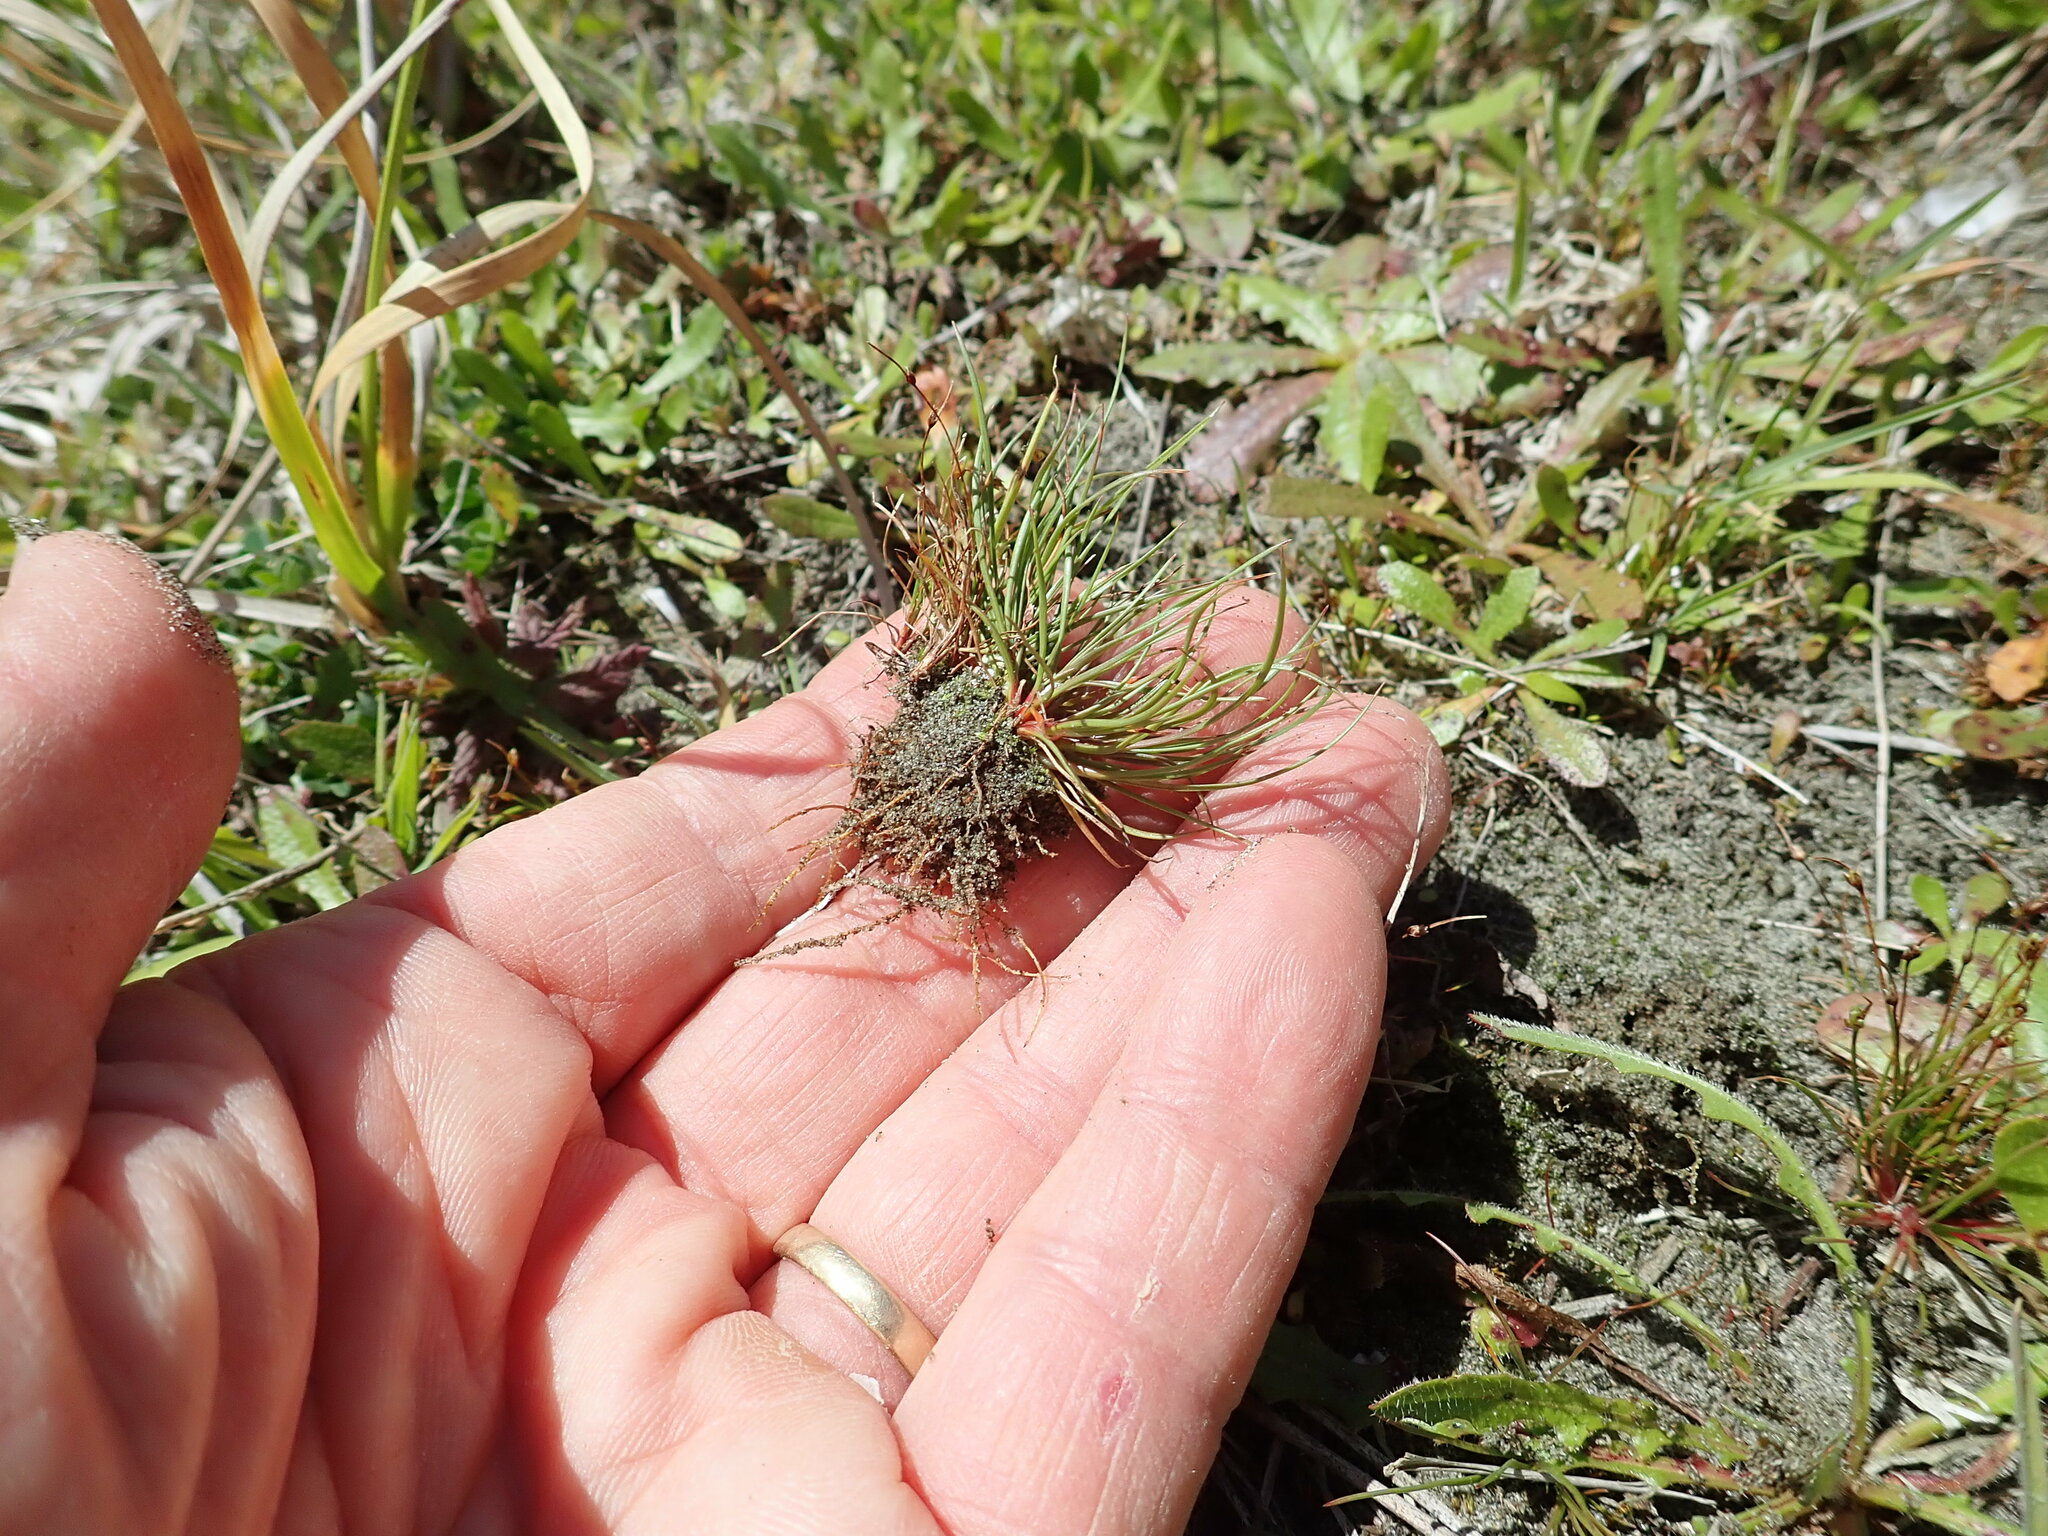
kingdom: Plantae
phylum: Tracheophyta
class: Liliopsida
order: Poales
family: Juncaceae
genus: Juncus
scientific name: Juncus bufonius
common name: Toad rush
